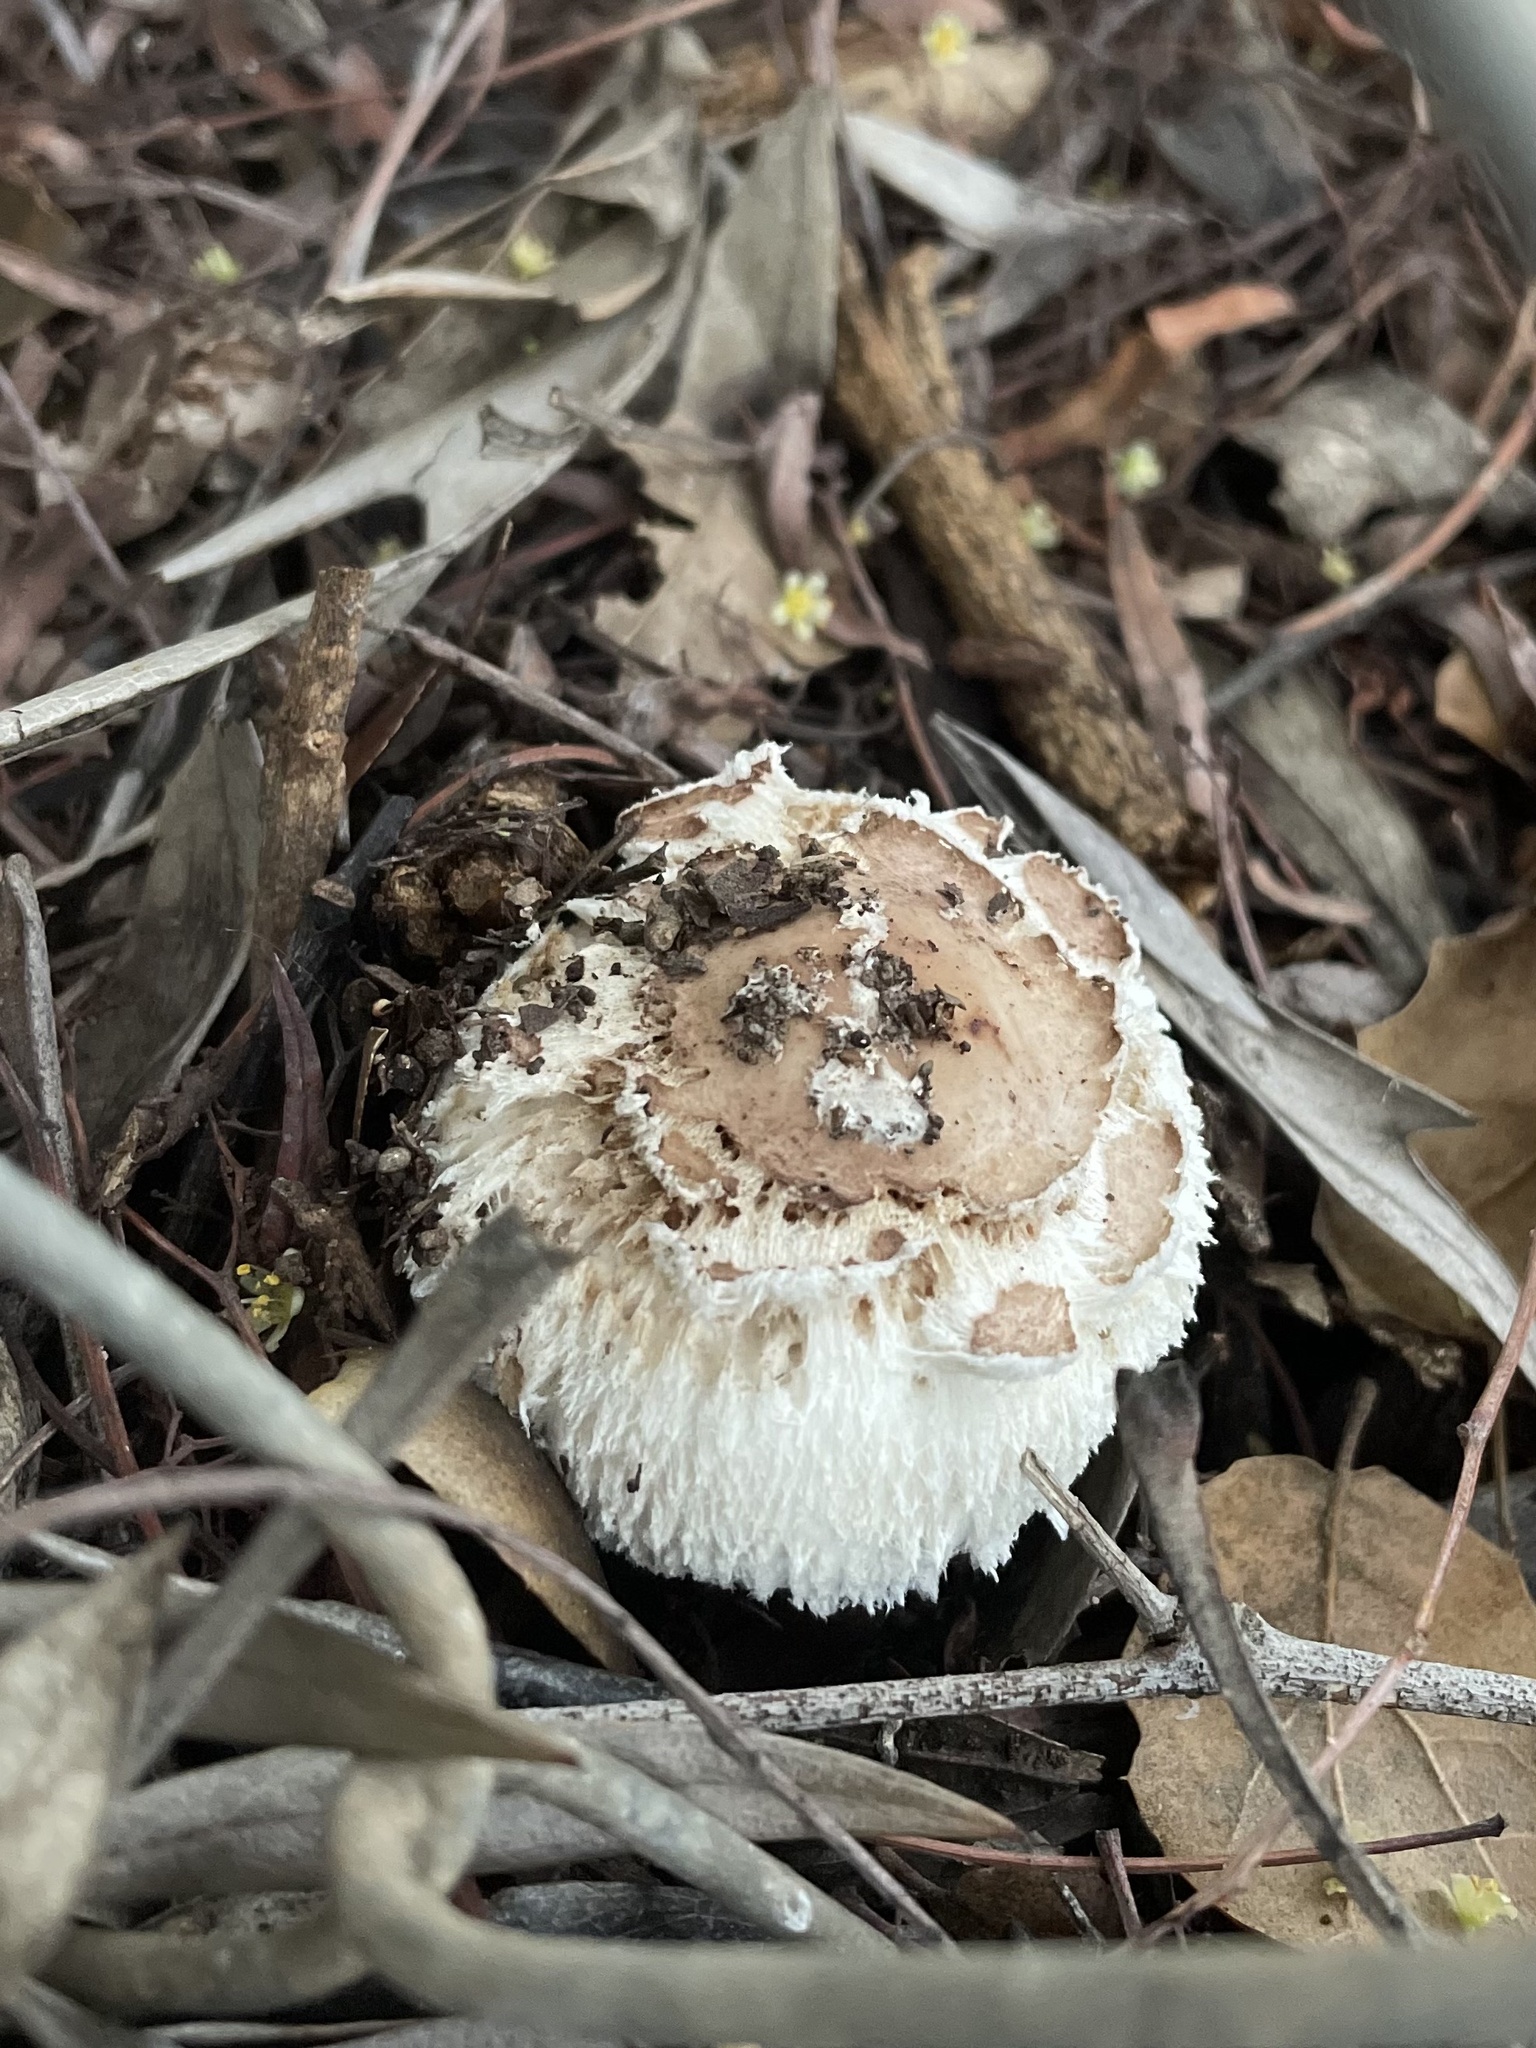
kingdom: Fungi
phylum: Basidiomycota
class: Agaricomycetes
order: Agaricales
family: Agaricaceae
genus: Chlorophyllum
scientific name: Chlorophyllum brunneum
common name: Brown parasol
